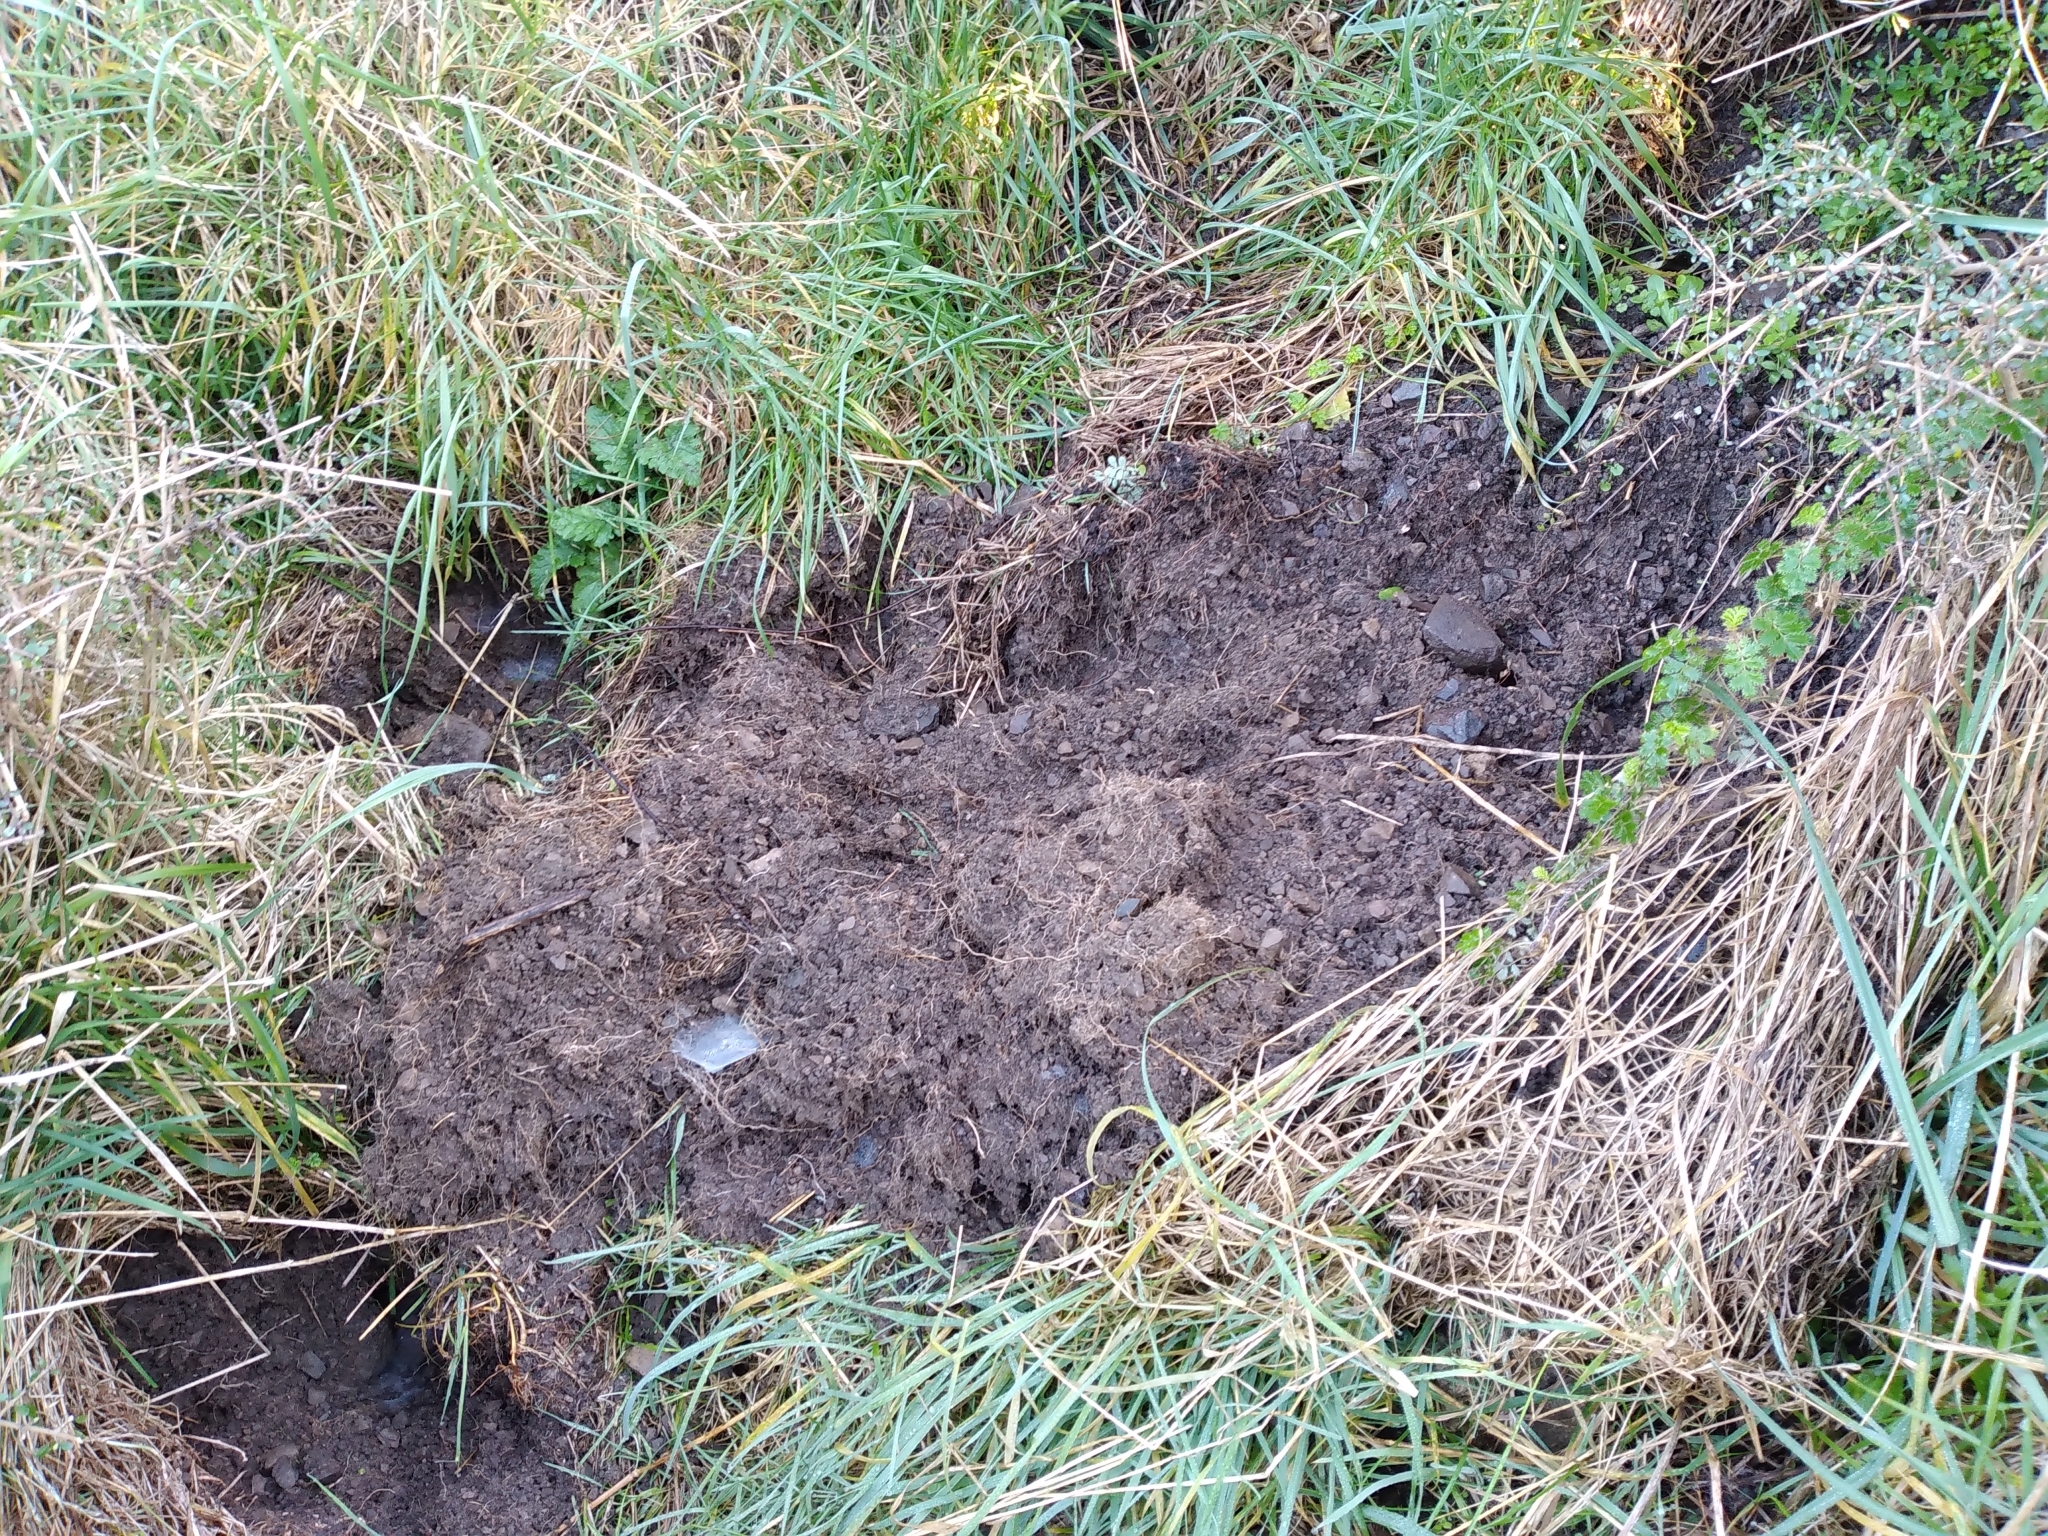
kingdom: Animalia
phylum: Chordata
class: Mammalia
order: Artiodactyla
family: Suidae
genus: Sus
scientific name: Sus scrofa
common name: Wild boar
